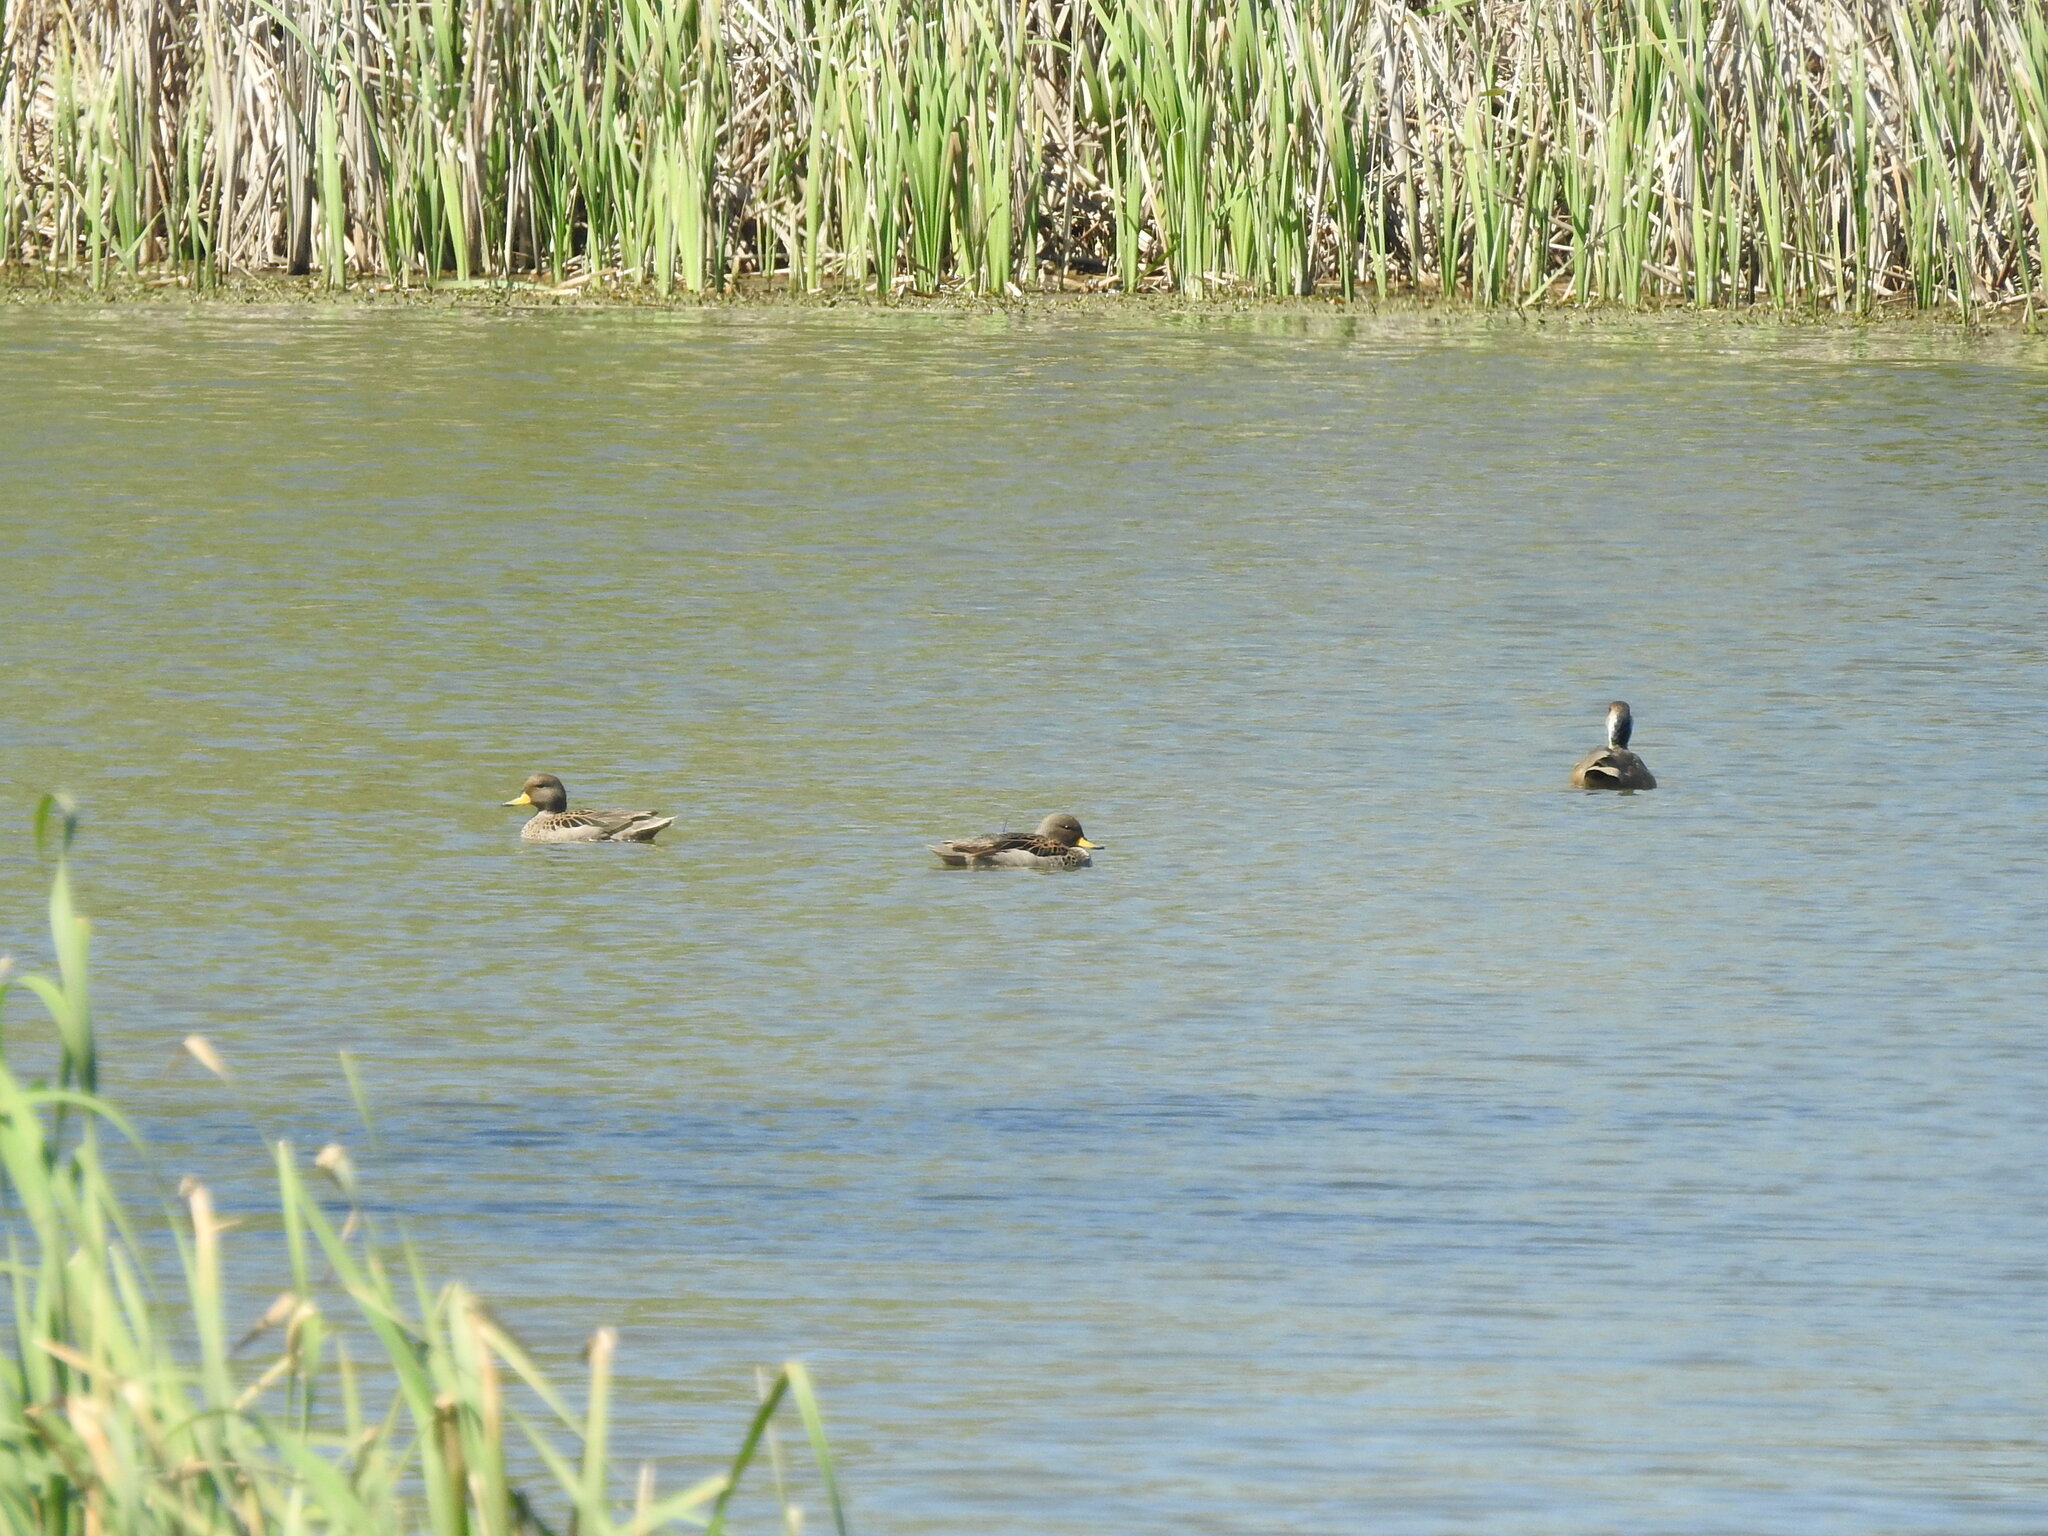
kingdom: Animalia
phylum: Chordata
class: Aves
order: Anseriformes
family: Anatidae
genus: Anas
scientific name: Anas flavirostris
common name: Yellow-billed teal
